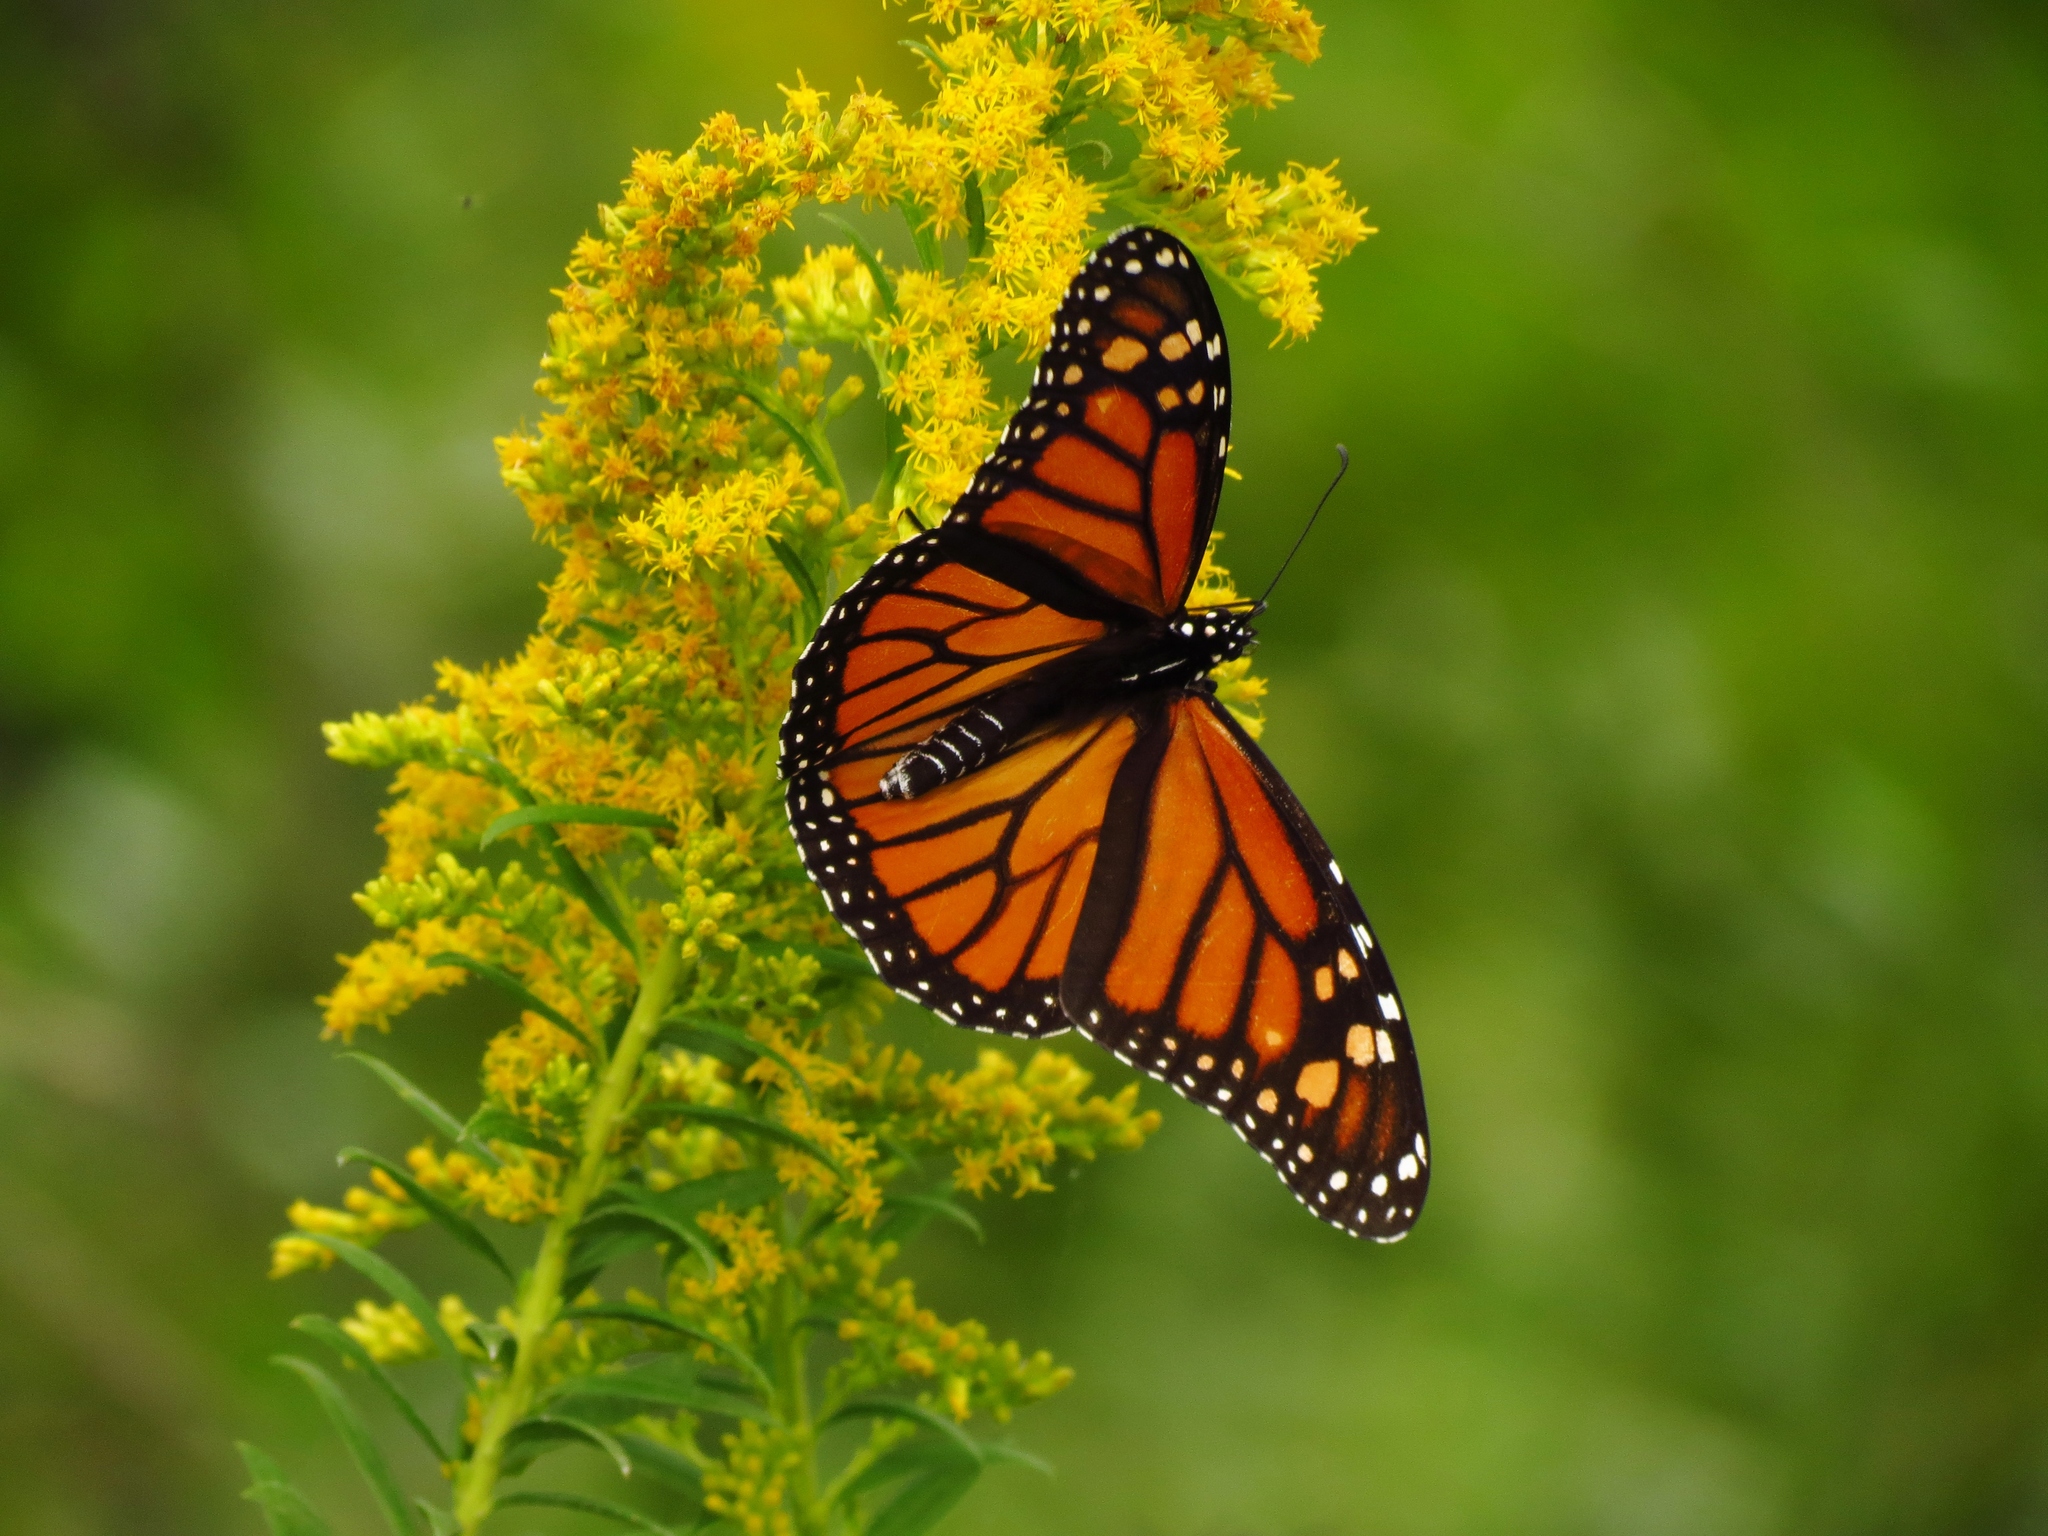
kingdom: Animalia
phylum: Arthropoda
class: Insecta
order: Lepidoptera
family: Nymphalidae
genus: Danaus
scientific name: Danaus plexippus
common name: Monarch
